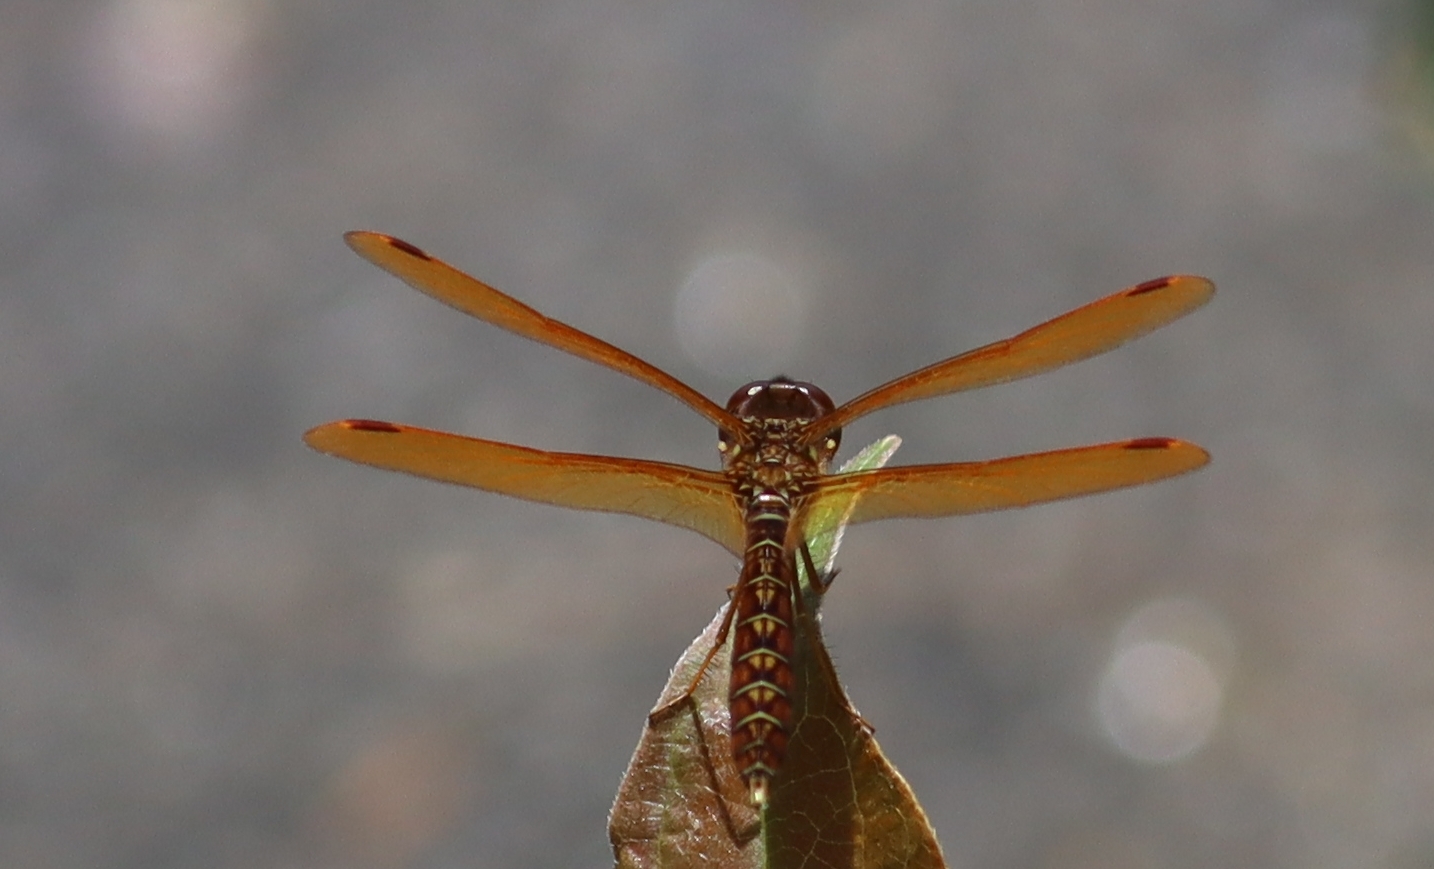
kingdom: Animalia
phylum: Arthropoda
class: Insecta
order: Odonata
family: Libellulidae
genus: Perithemis
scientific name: Perithemis tenera
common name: Eastern amberwing
